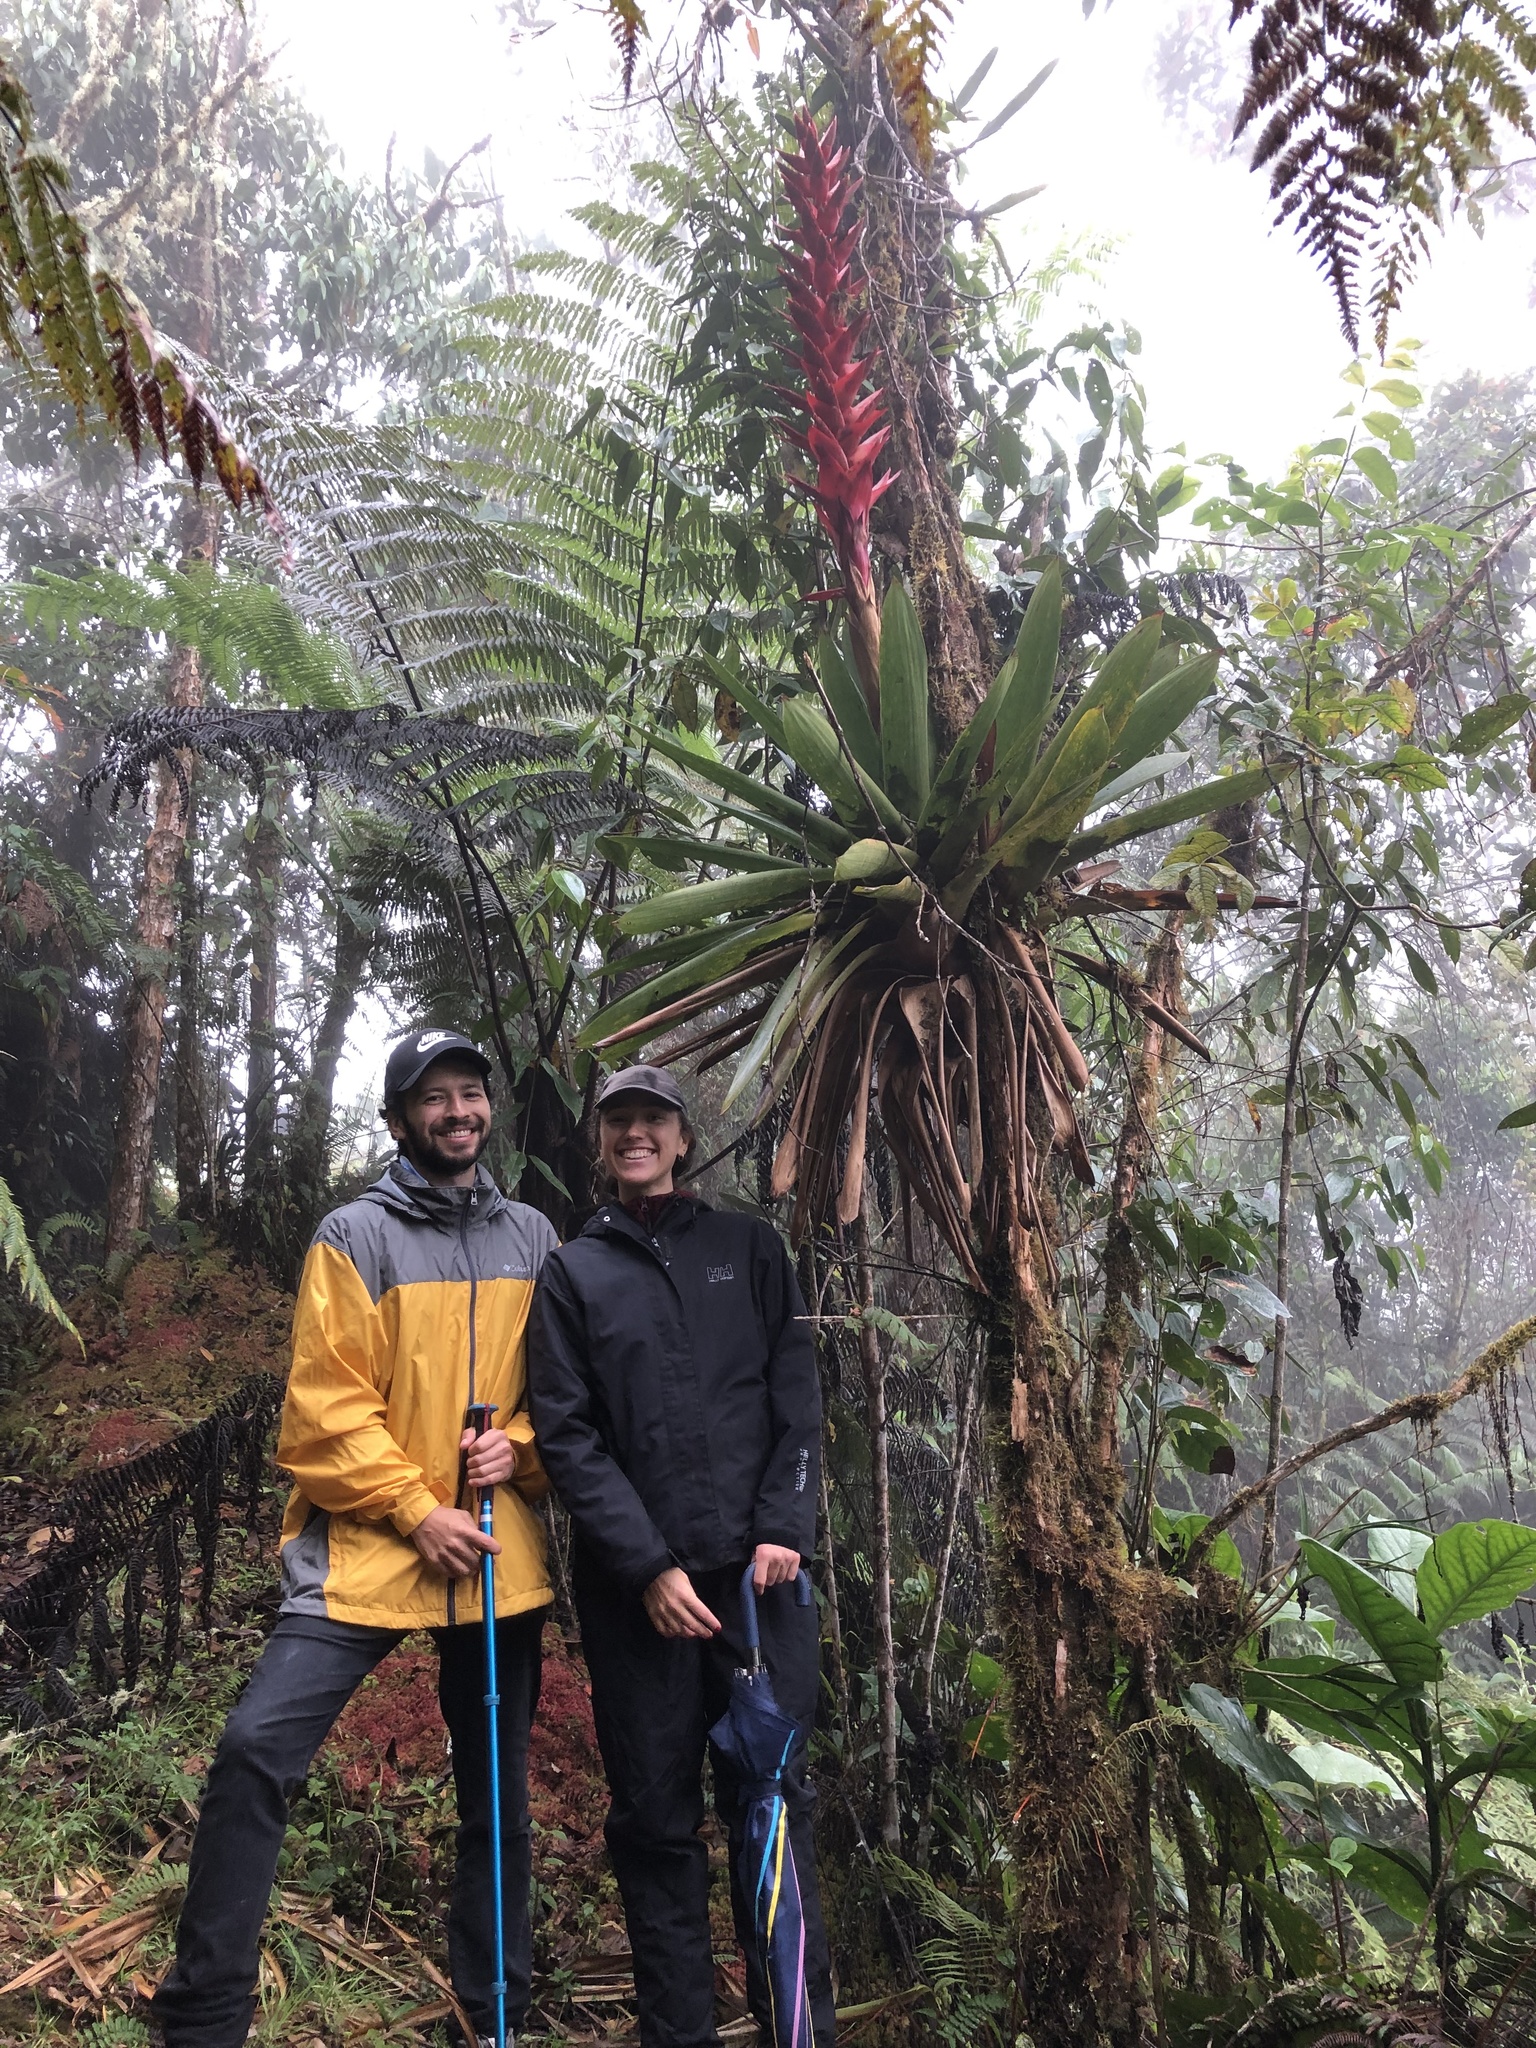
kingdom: Plantae
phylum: Tracheophyta
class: Liliopsida
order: Poales
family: Bromeliaceae
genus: Tillandsia
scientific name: Tillandsia schimperiana
